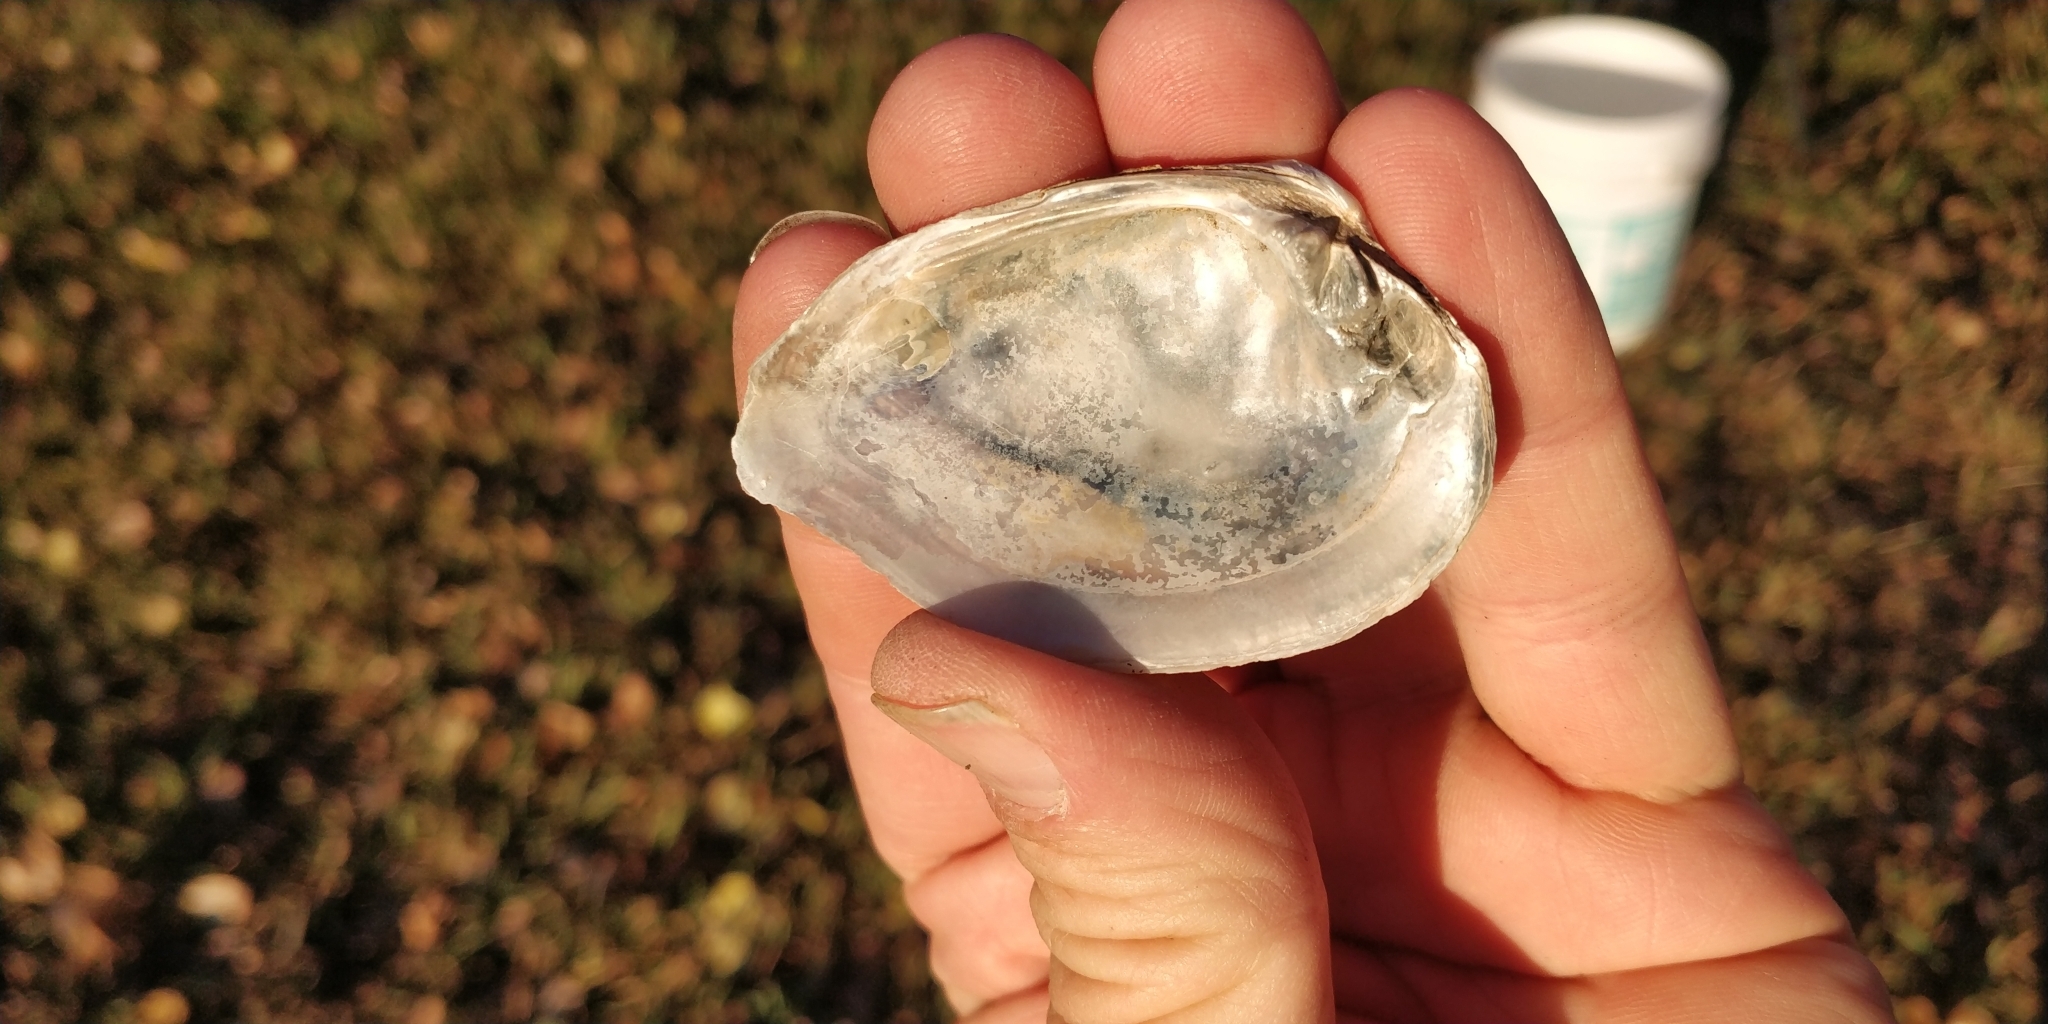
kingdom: Animalia
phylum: Mollusca
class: Bivalvia
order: Unionida
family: Unionidae
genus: Truncilla
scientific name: Truncilla truncata
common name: Deertoe
